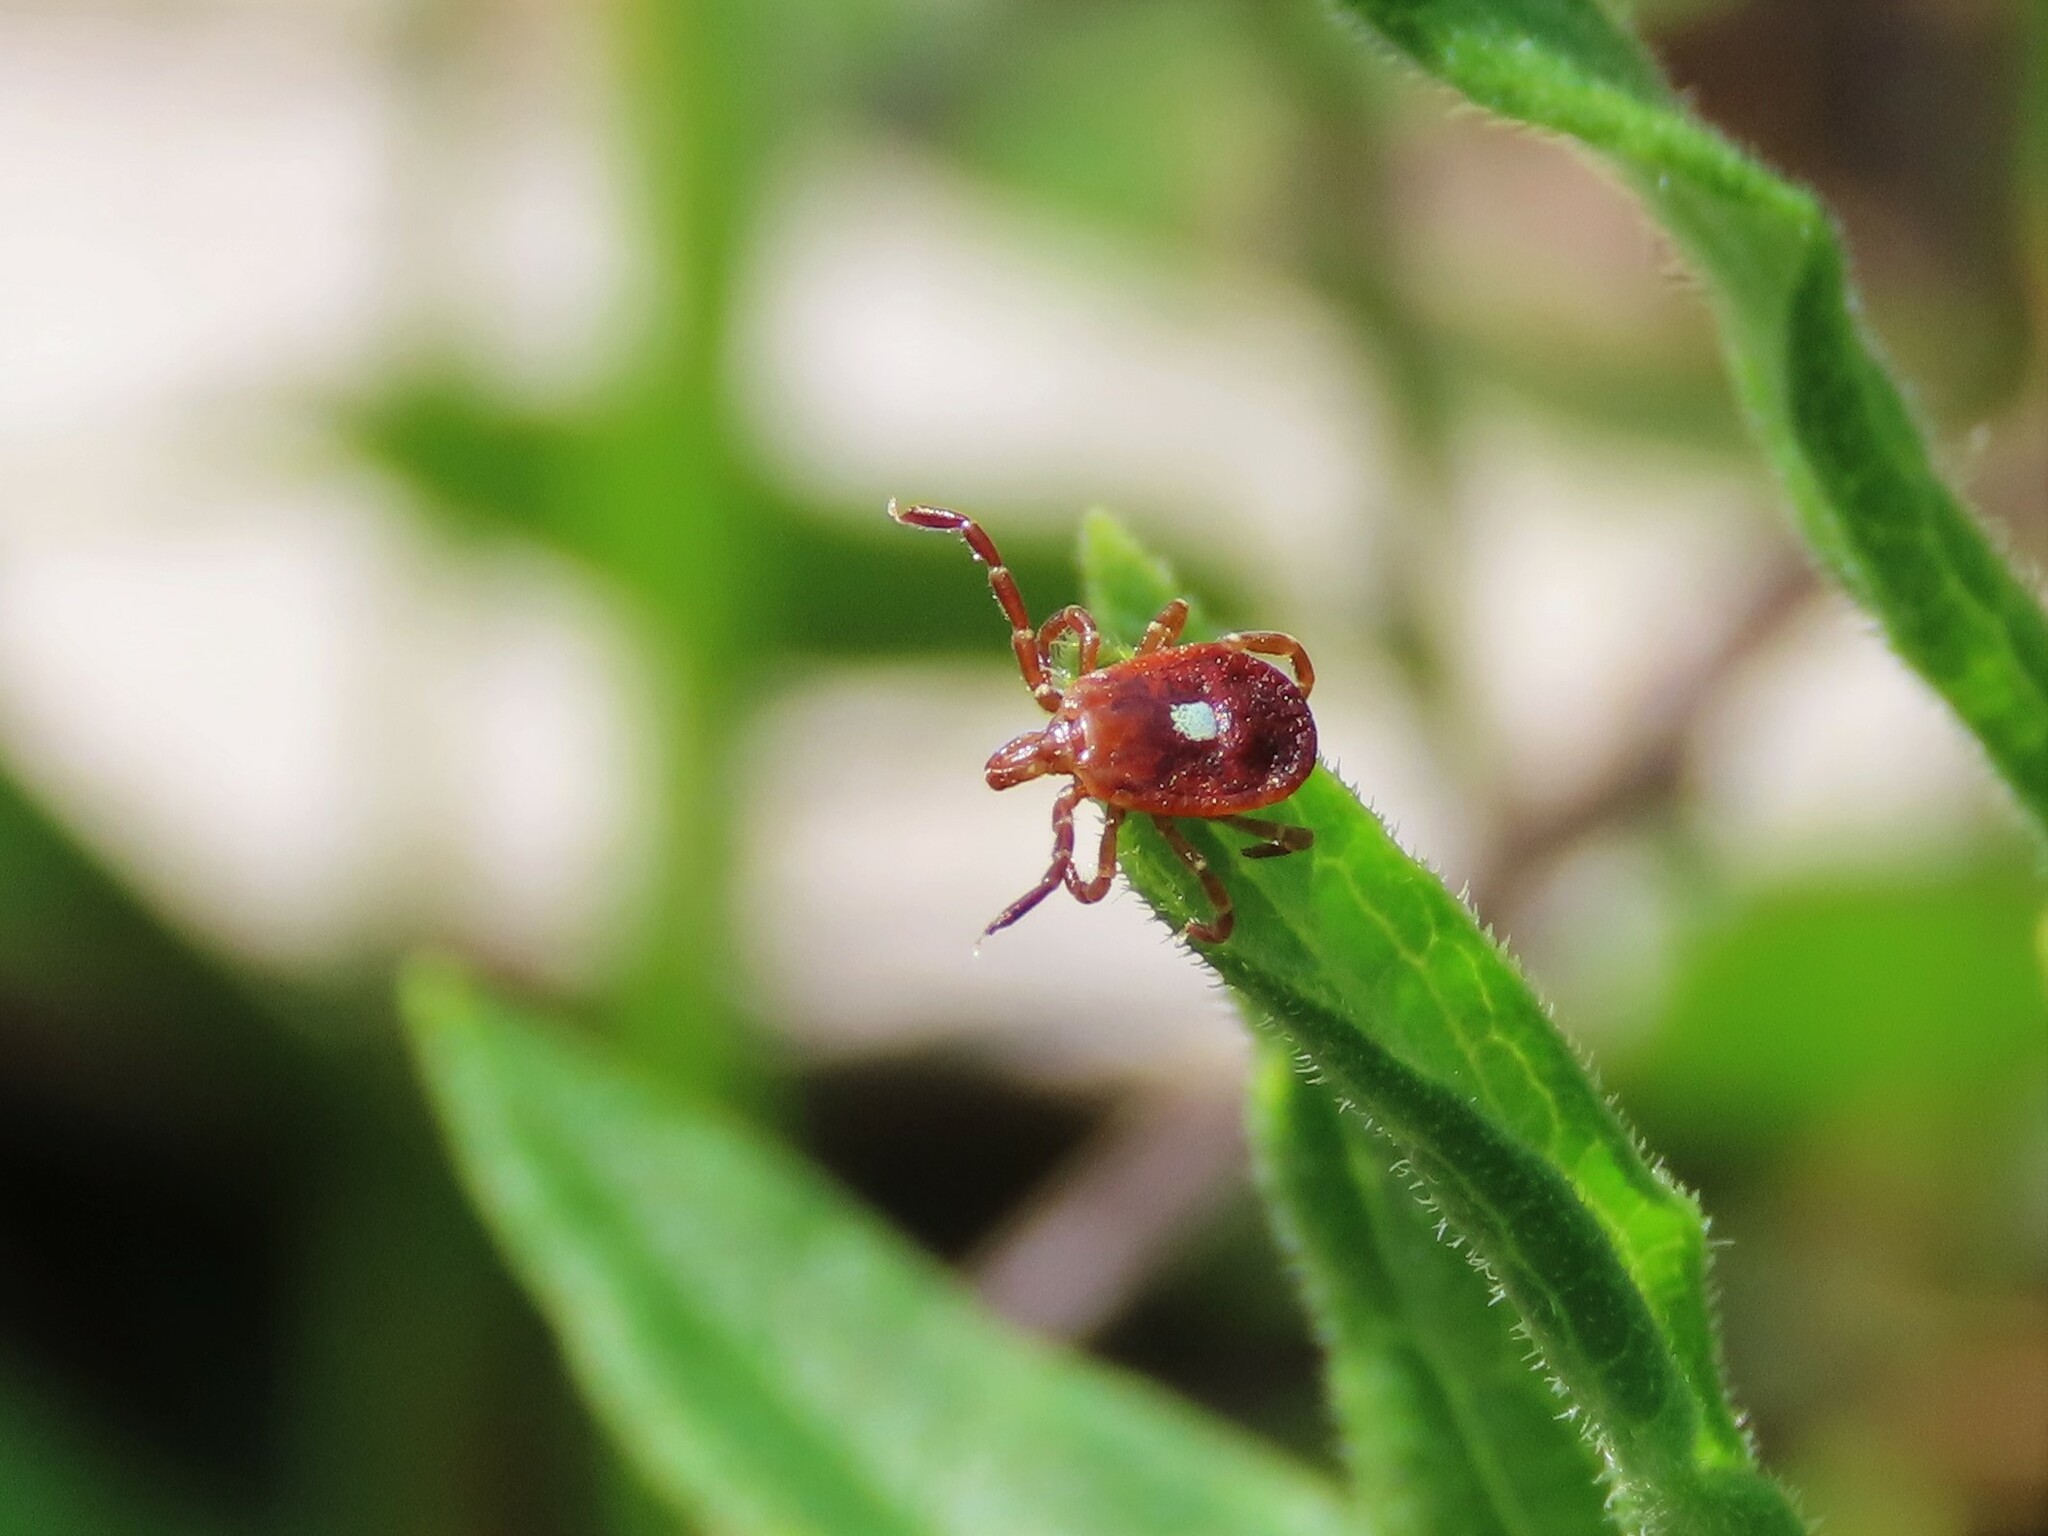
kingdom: Animalia
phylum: Arthropoda
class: Arachnida
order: Ixodida
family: Ixodidae
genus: Amblyomma
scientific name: Amblyomma americanum
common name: Lone star tick
